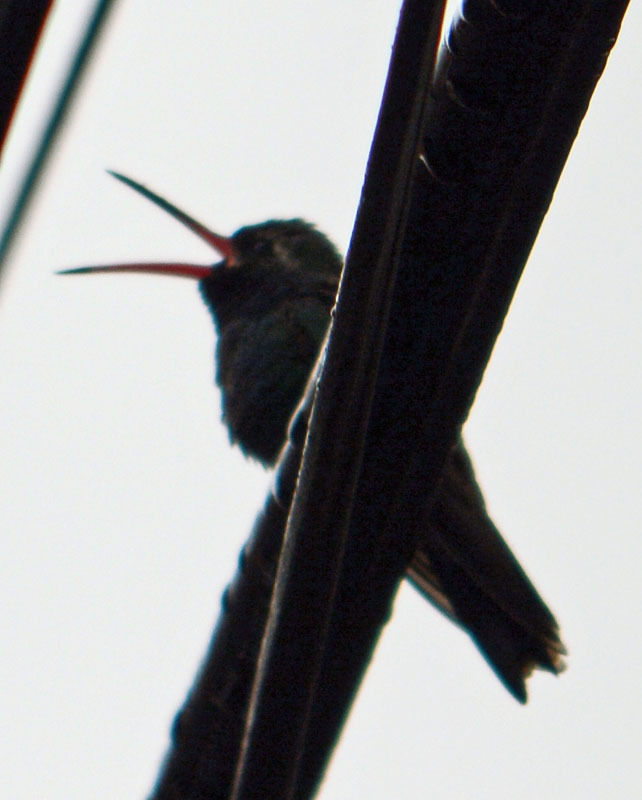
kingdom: Animalia
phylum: Chordata
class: Aves
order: Apodiformes
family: Trochilidae
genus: Cynanthus
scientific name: Cynanthus latirostris
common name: Broad-billed hummingbird
